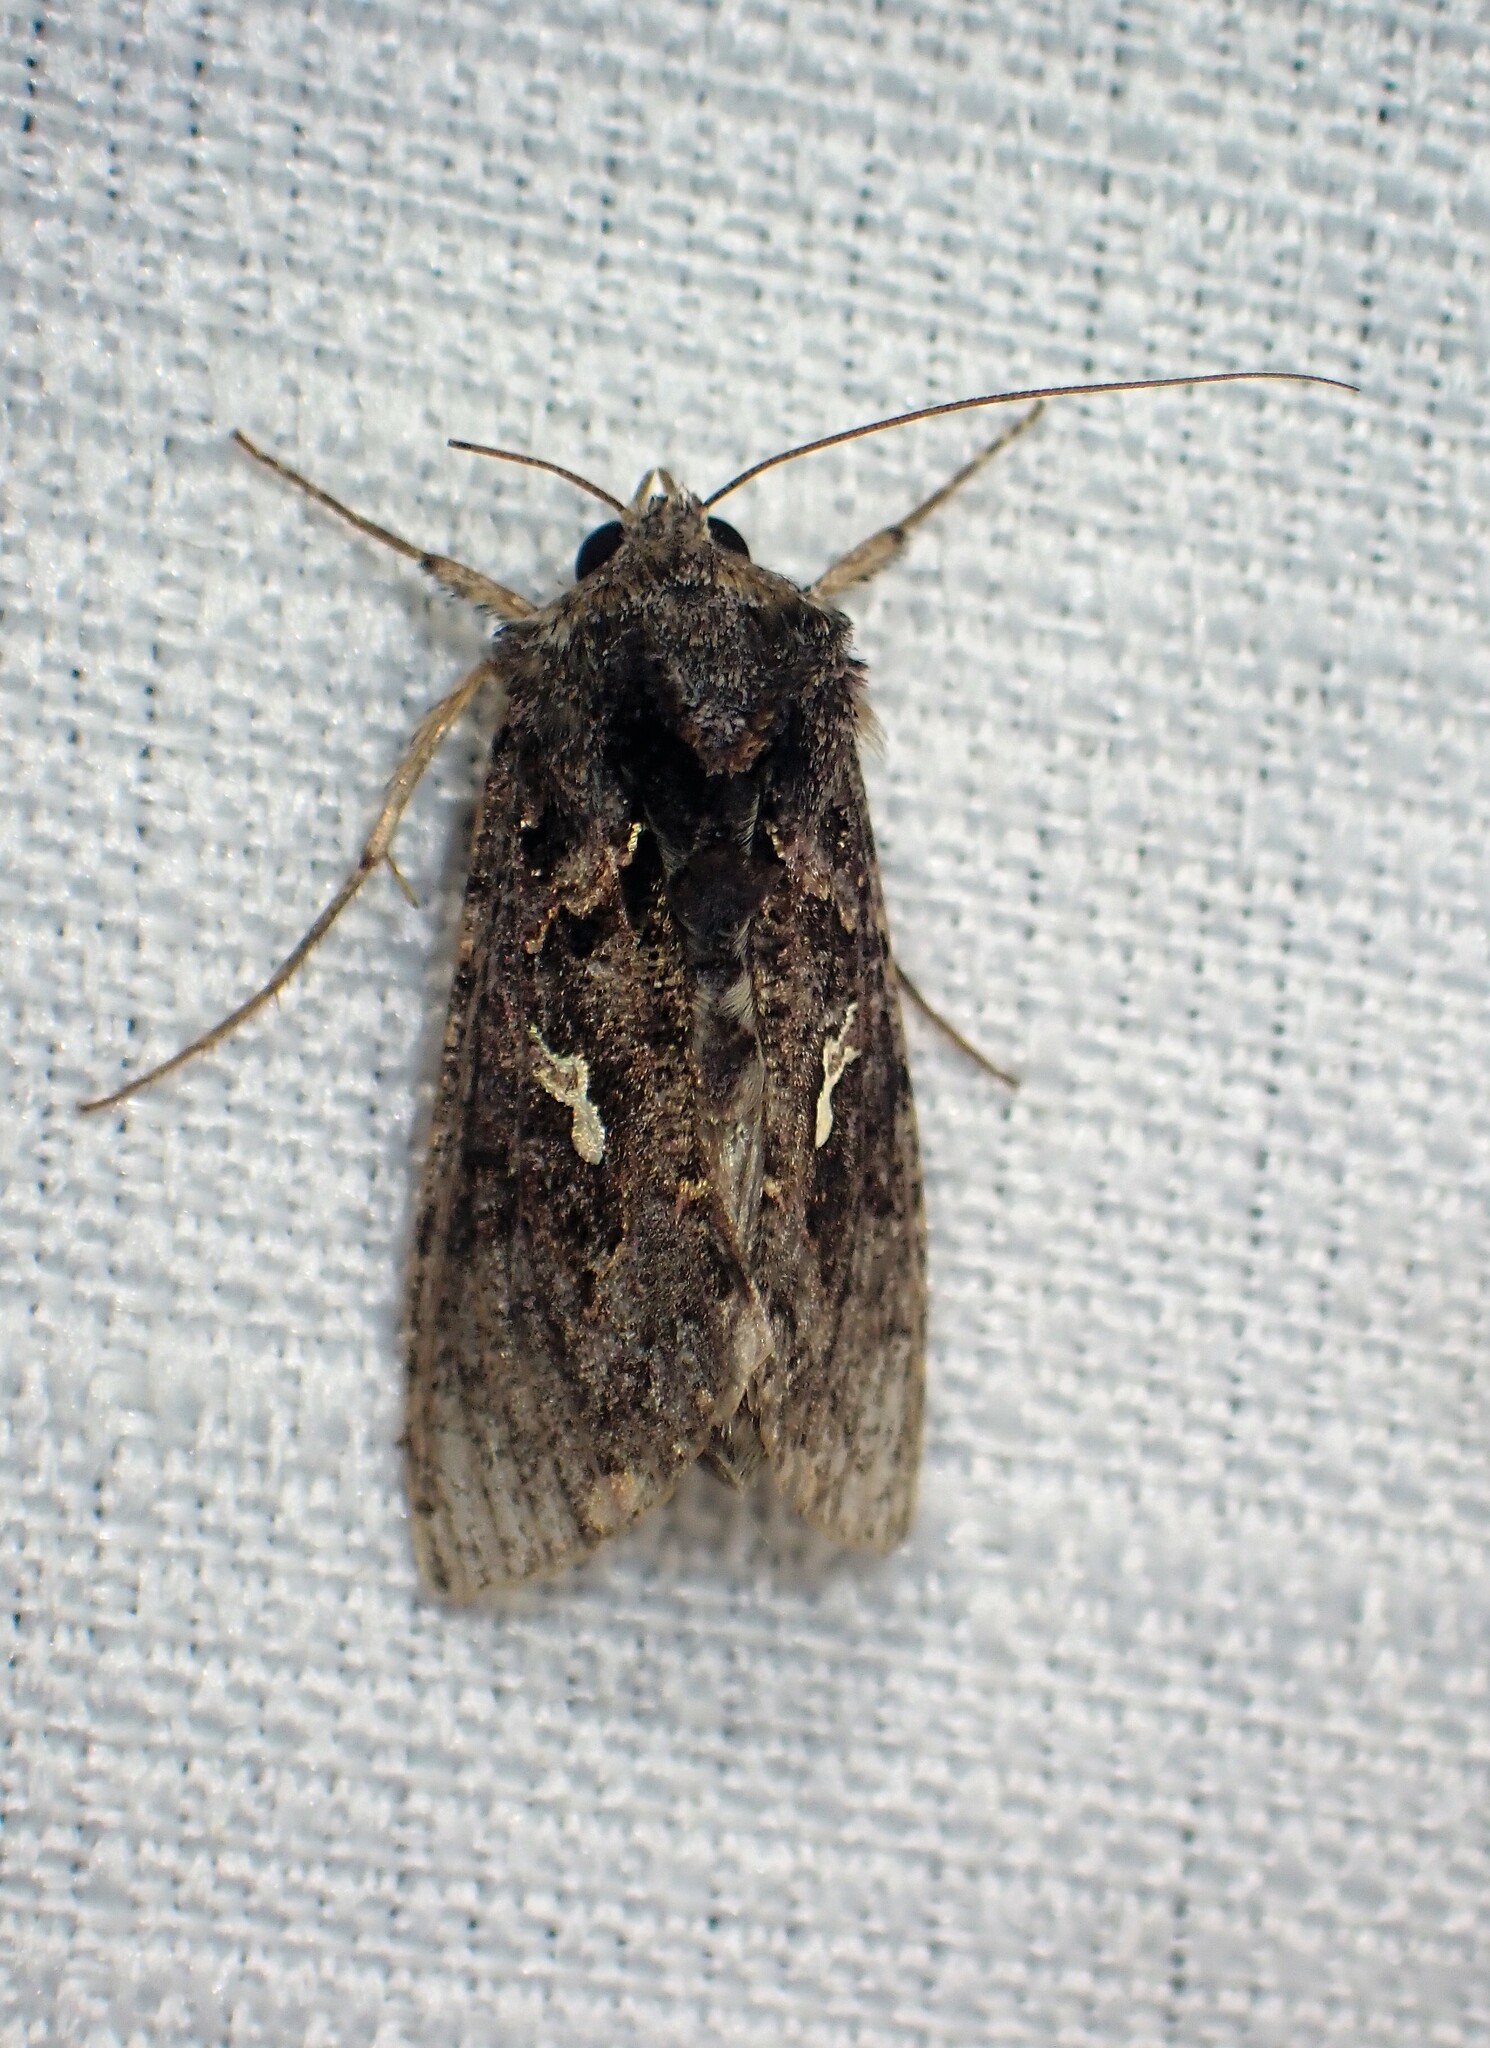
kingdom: Animalia
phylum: Arthropoda
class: Insecta
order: Lepidoptera
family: Noctuidae
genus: Ctenoplusia
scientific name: Ctenoplusia limbirena
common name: Scar bank gem
